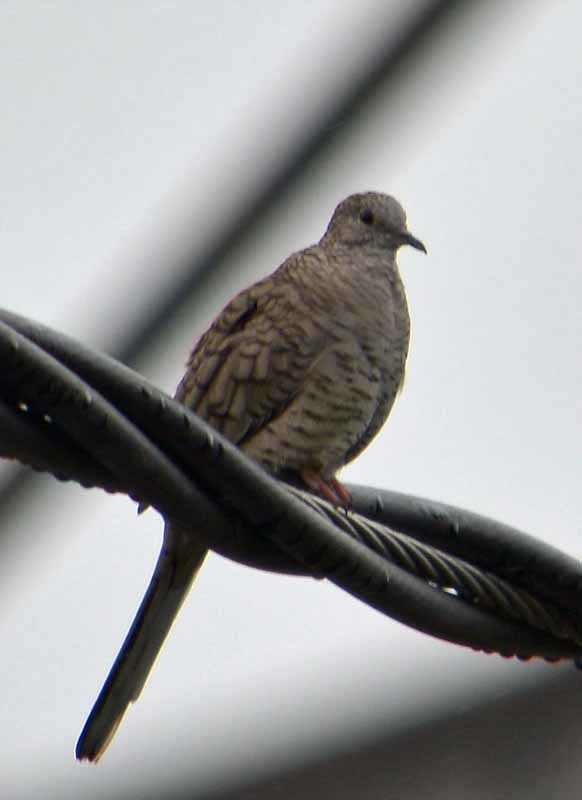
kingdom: Animalia
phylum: Chordata
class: Aves
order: Columbiformes
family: Columbidae
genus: Columbina
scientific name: Columbina inca
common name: Inca dove
